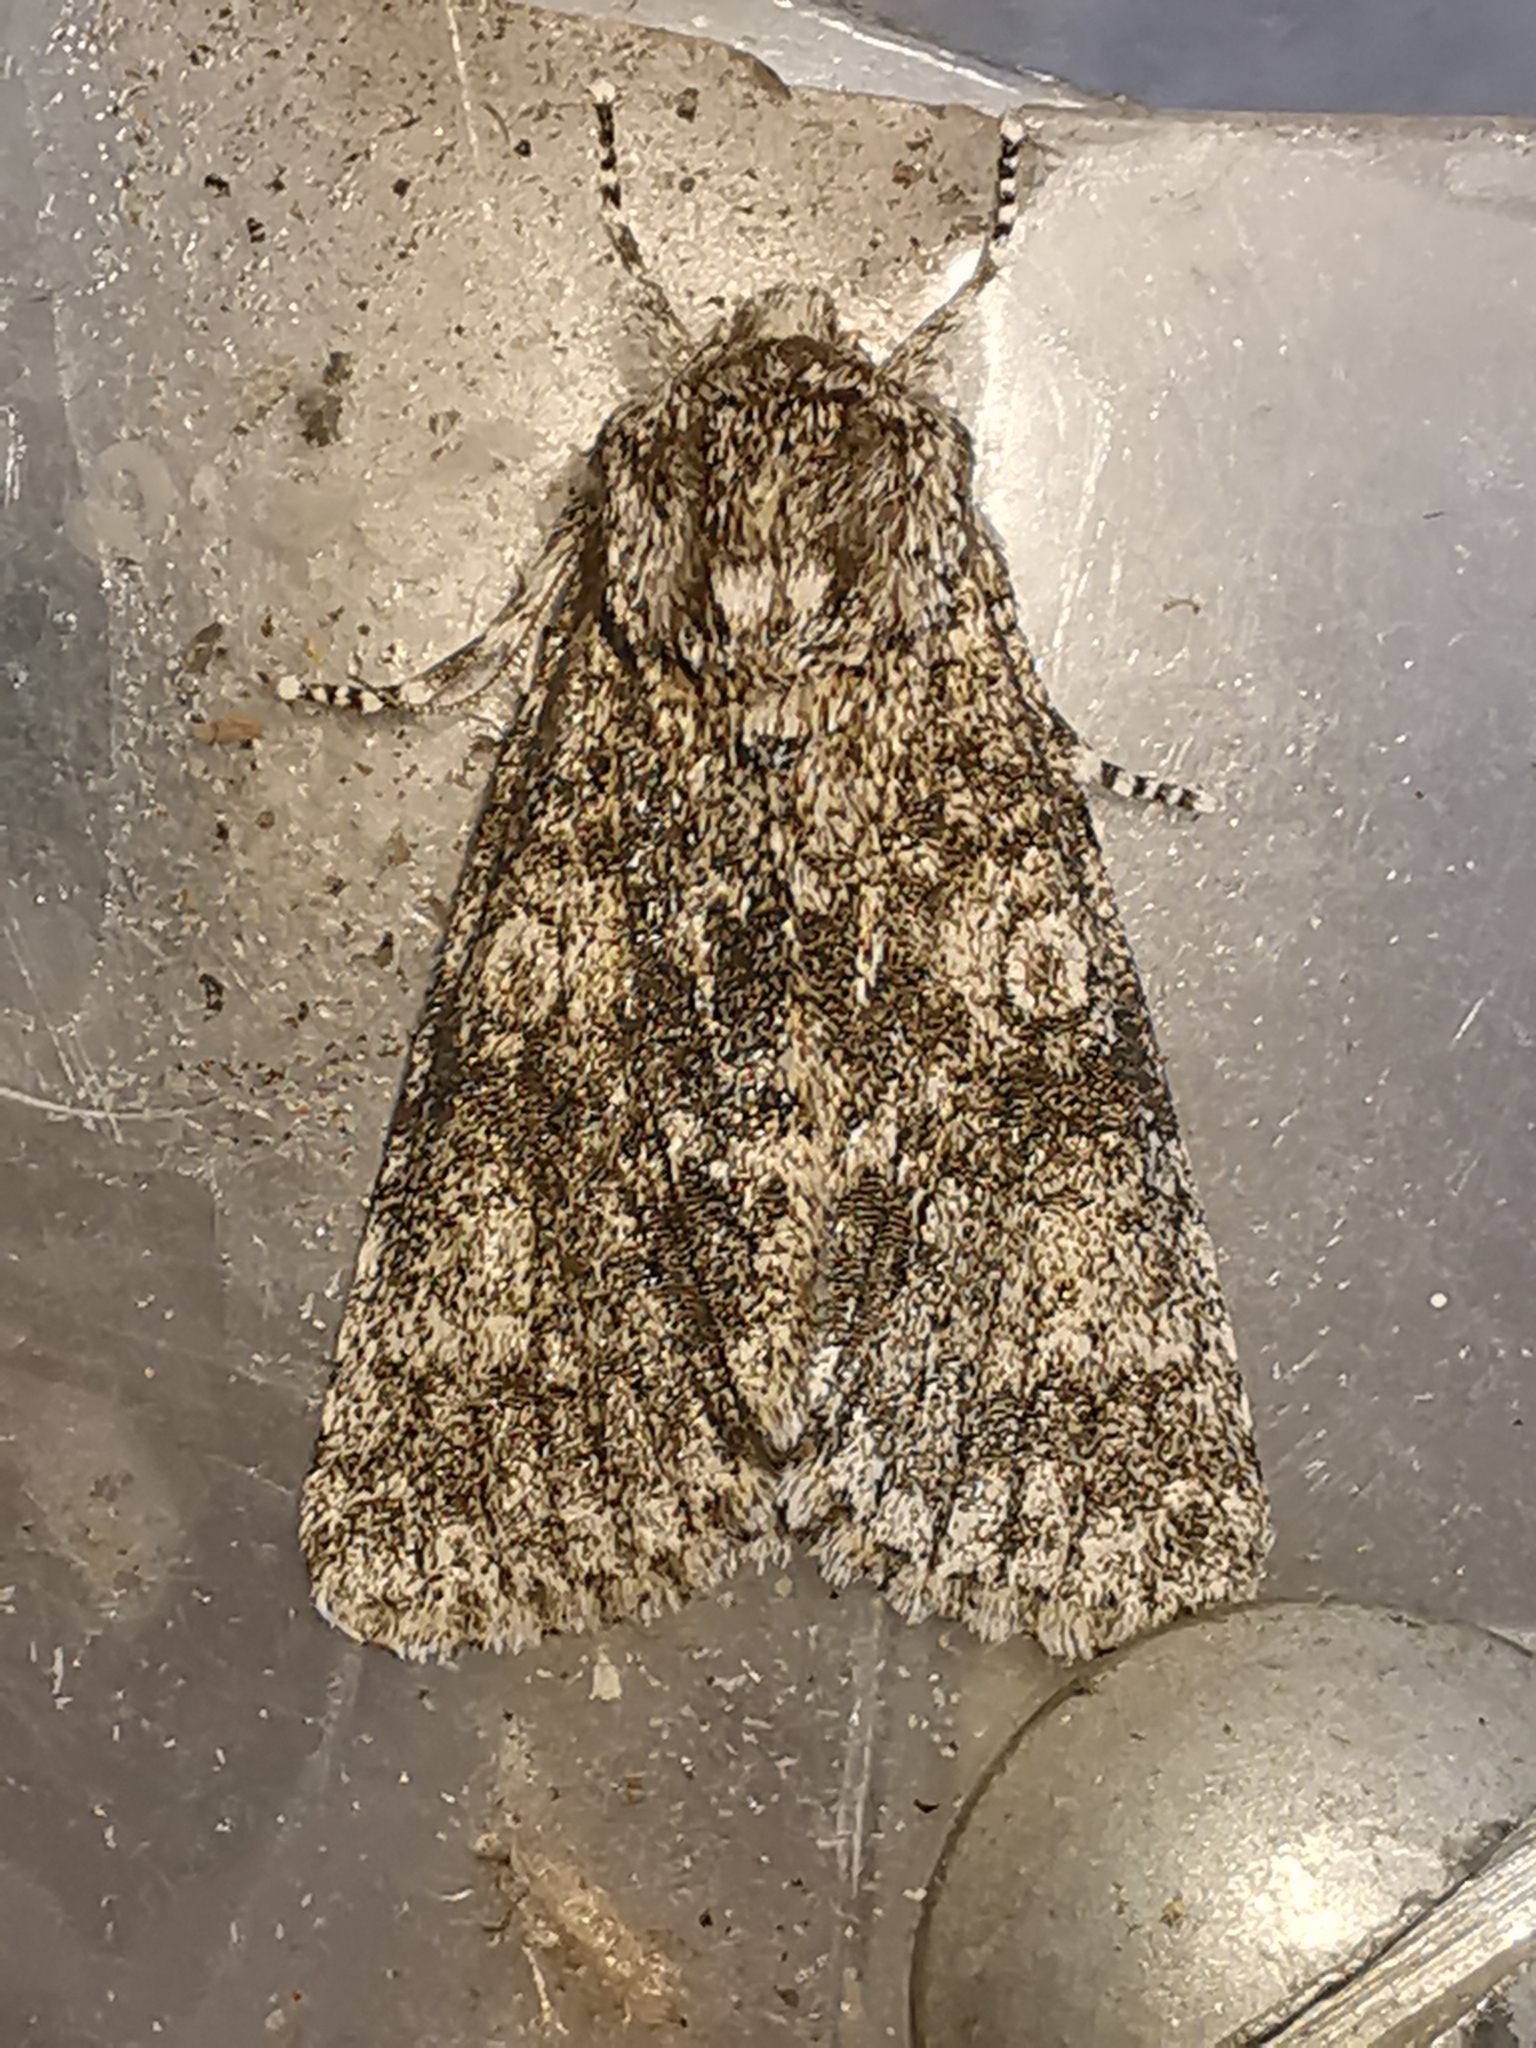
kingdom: Animalia
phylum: Arthropoda
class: Insecta
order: Lepidoptera
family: Noctuidae
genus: Acronicta
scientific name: Acronicta megacephala
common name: Poplar grey
